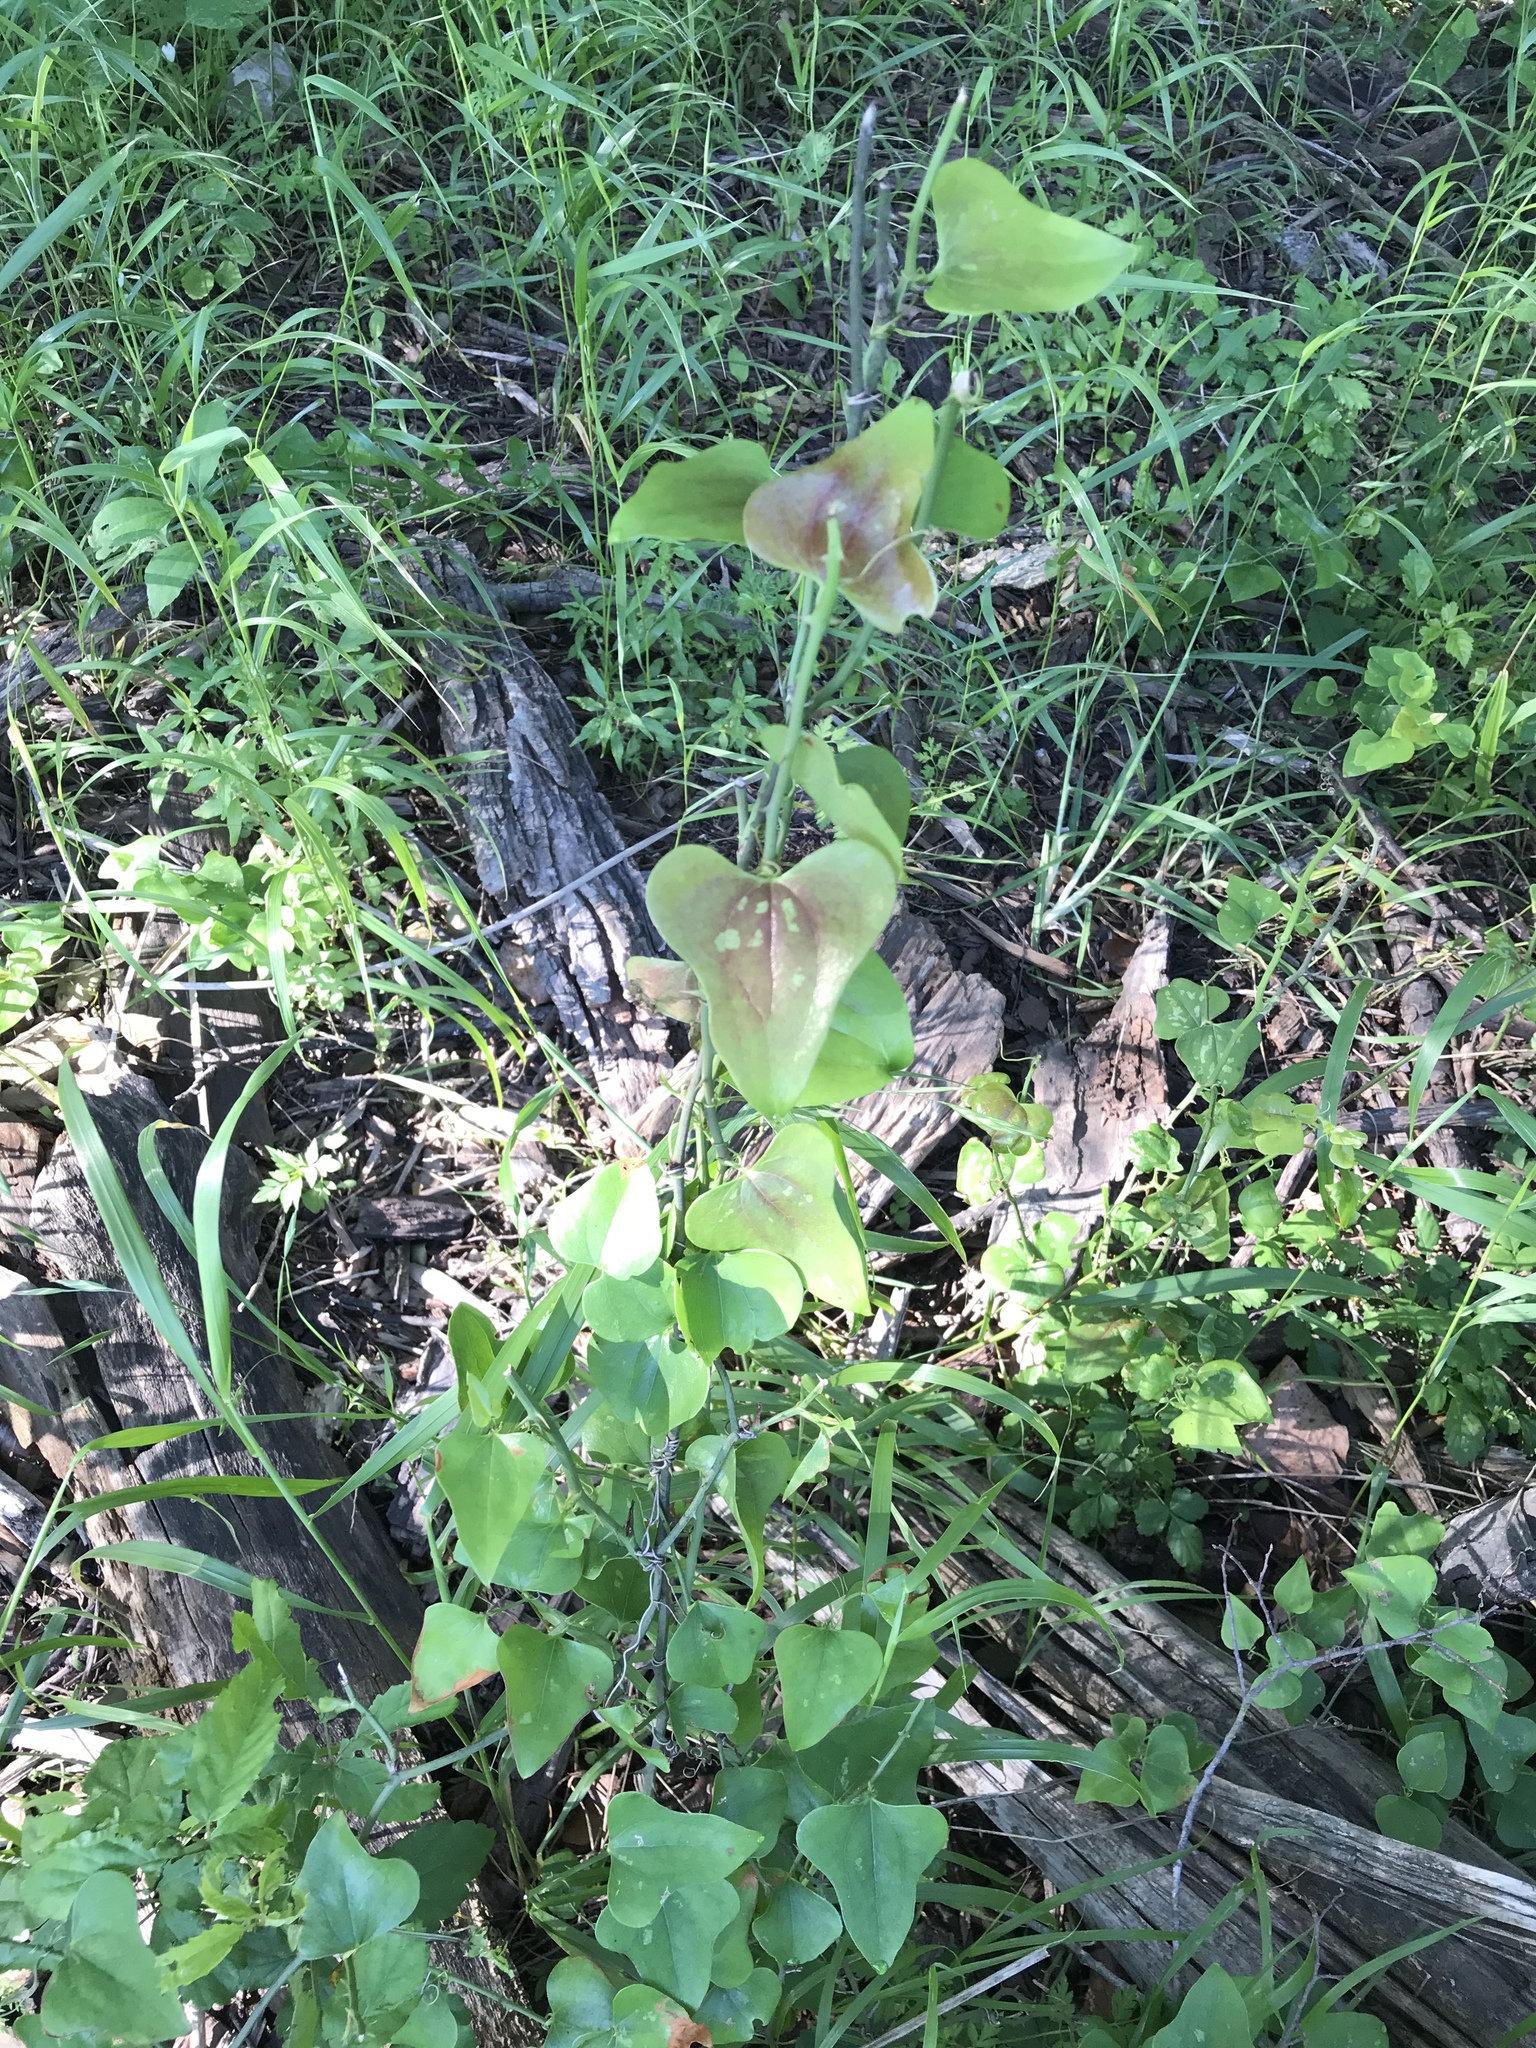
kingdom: Plantae
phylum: Tracheophyta
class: Liliopsida
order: Liliales
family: Smilacaceae
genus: Smilax
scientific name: Smilax bona-nox
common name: Catbrier
